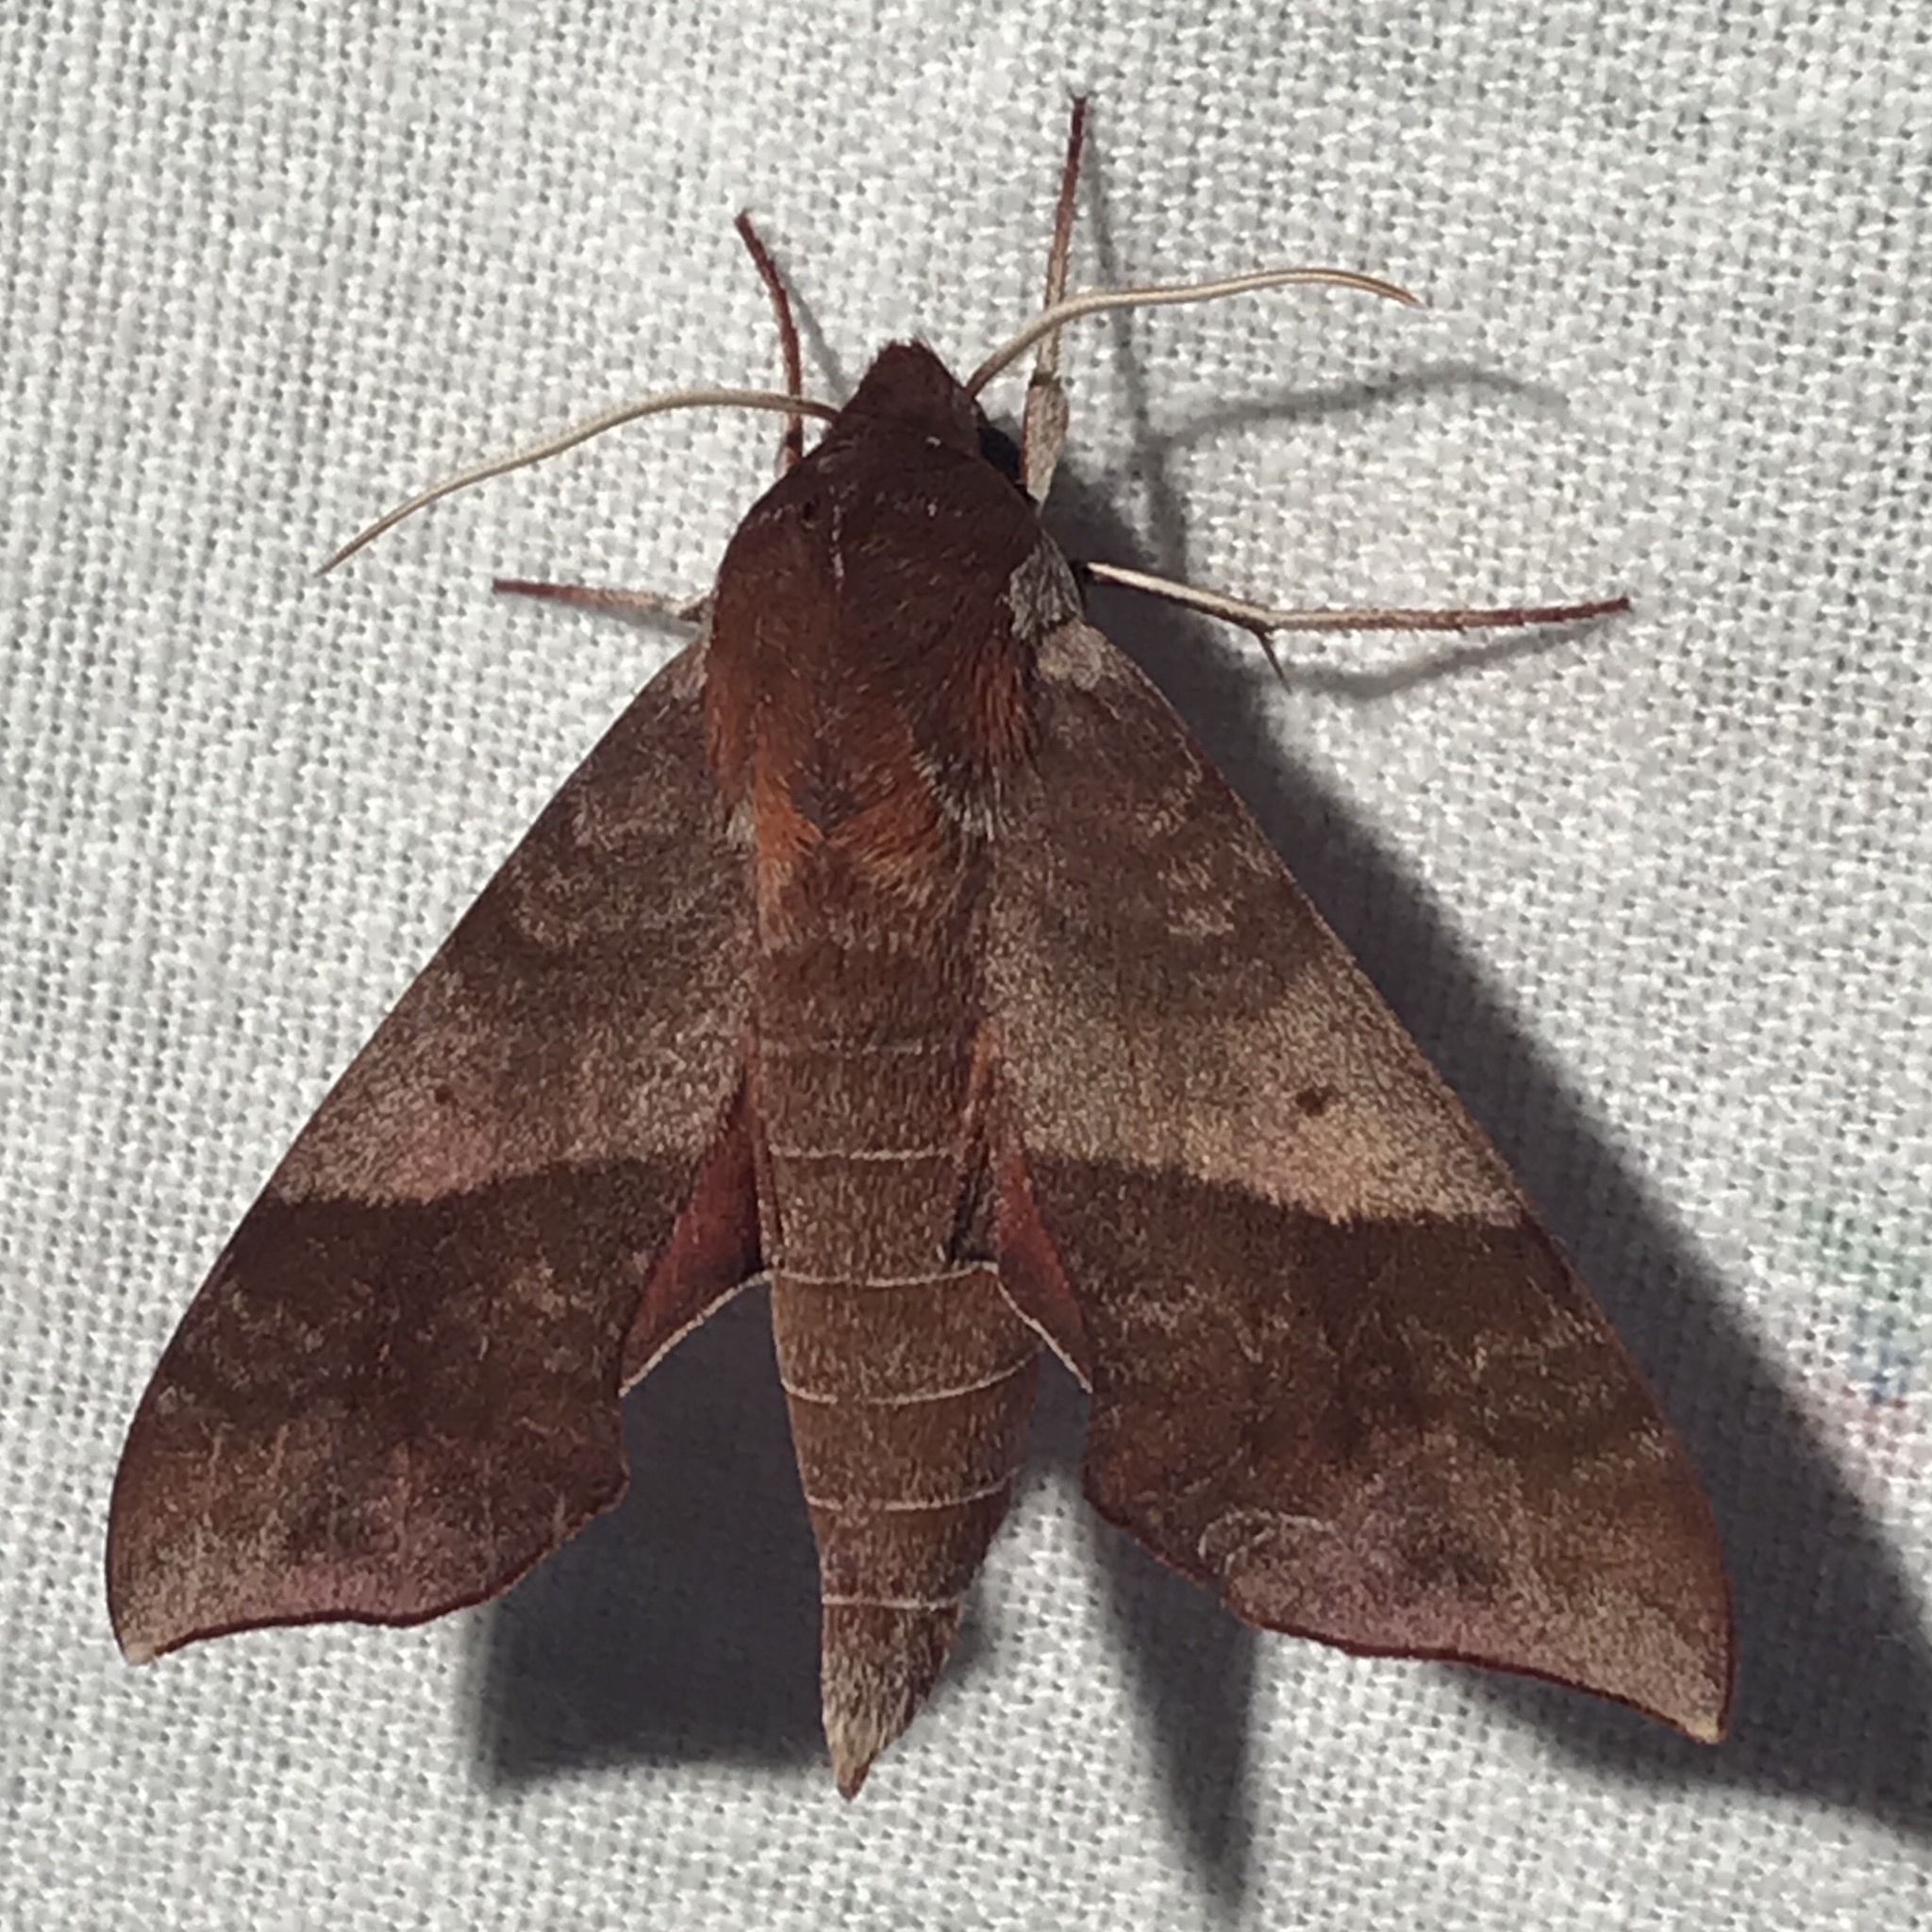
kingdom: Animalia
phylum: Arthropoda
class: Insecta
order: Lepidoptera
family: Sphingidae
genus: Darapsa
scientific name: Darapsa choerilus
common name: Azalea sphinx
